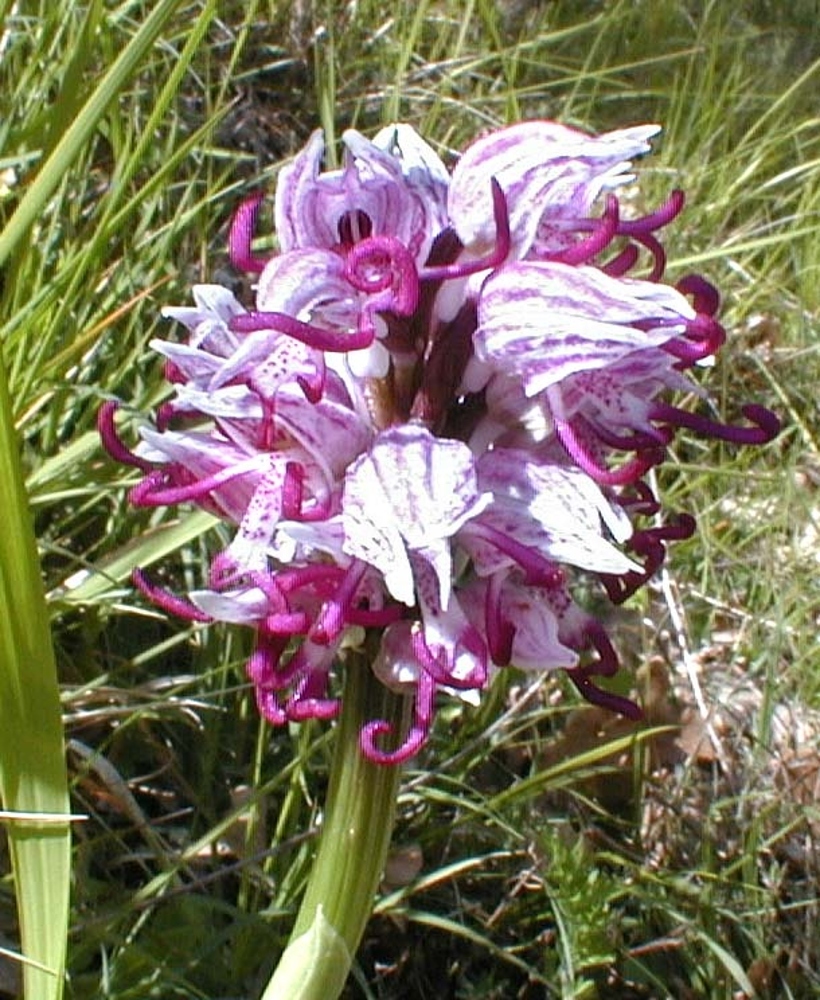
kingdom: Plantae
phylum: Tracheophyta
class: Liliopsida
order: Asparagales
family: Orchidaceae
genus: Orchis
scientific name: Orchis simia
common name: Monkey orchid
